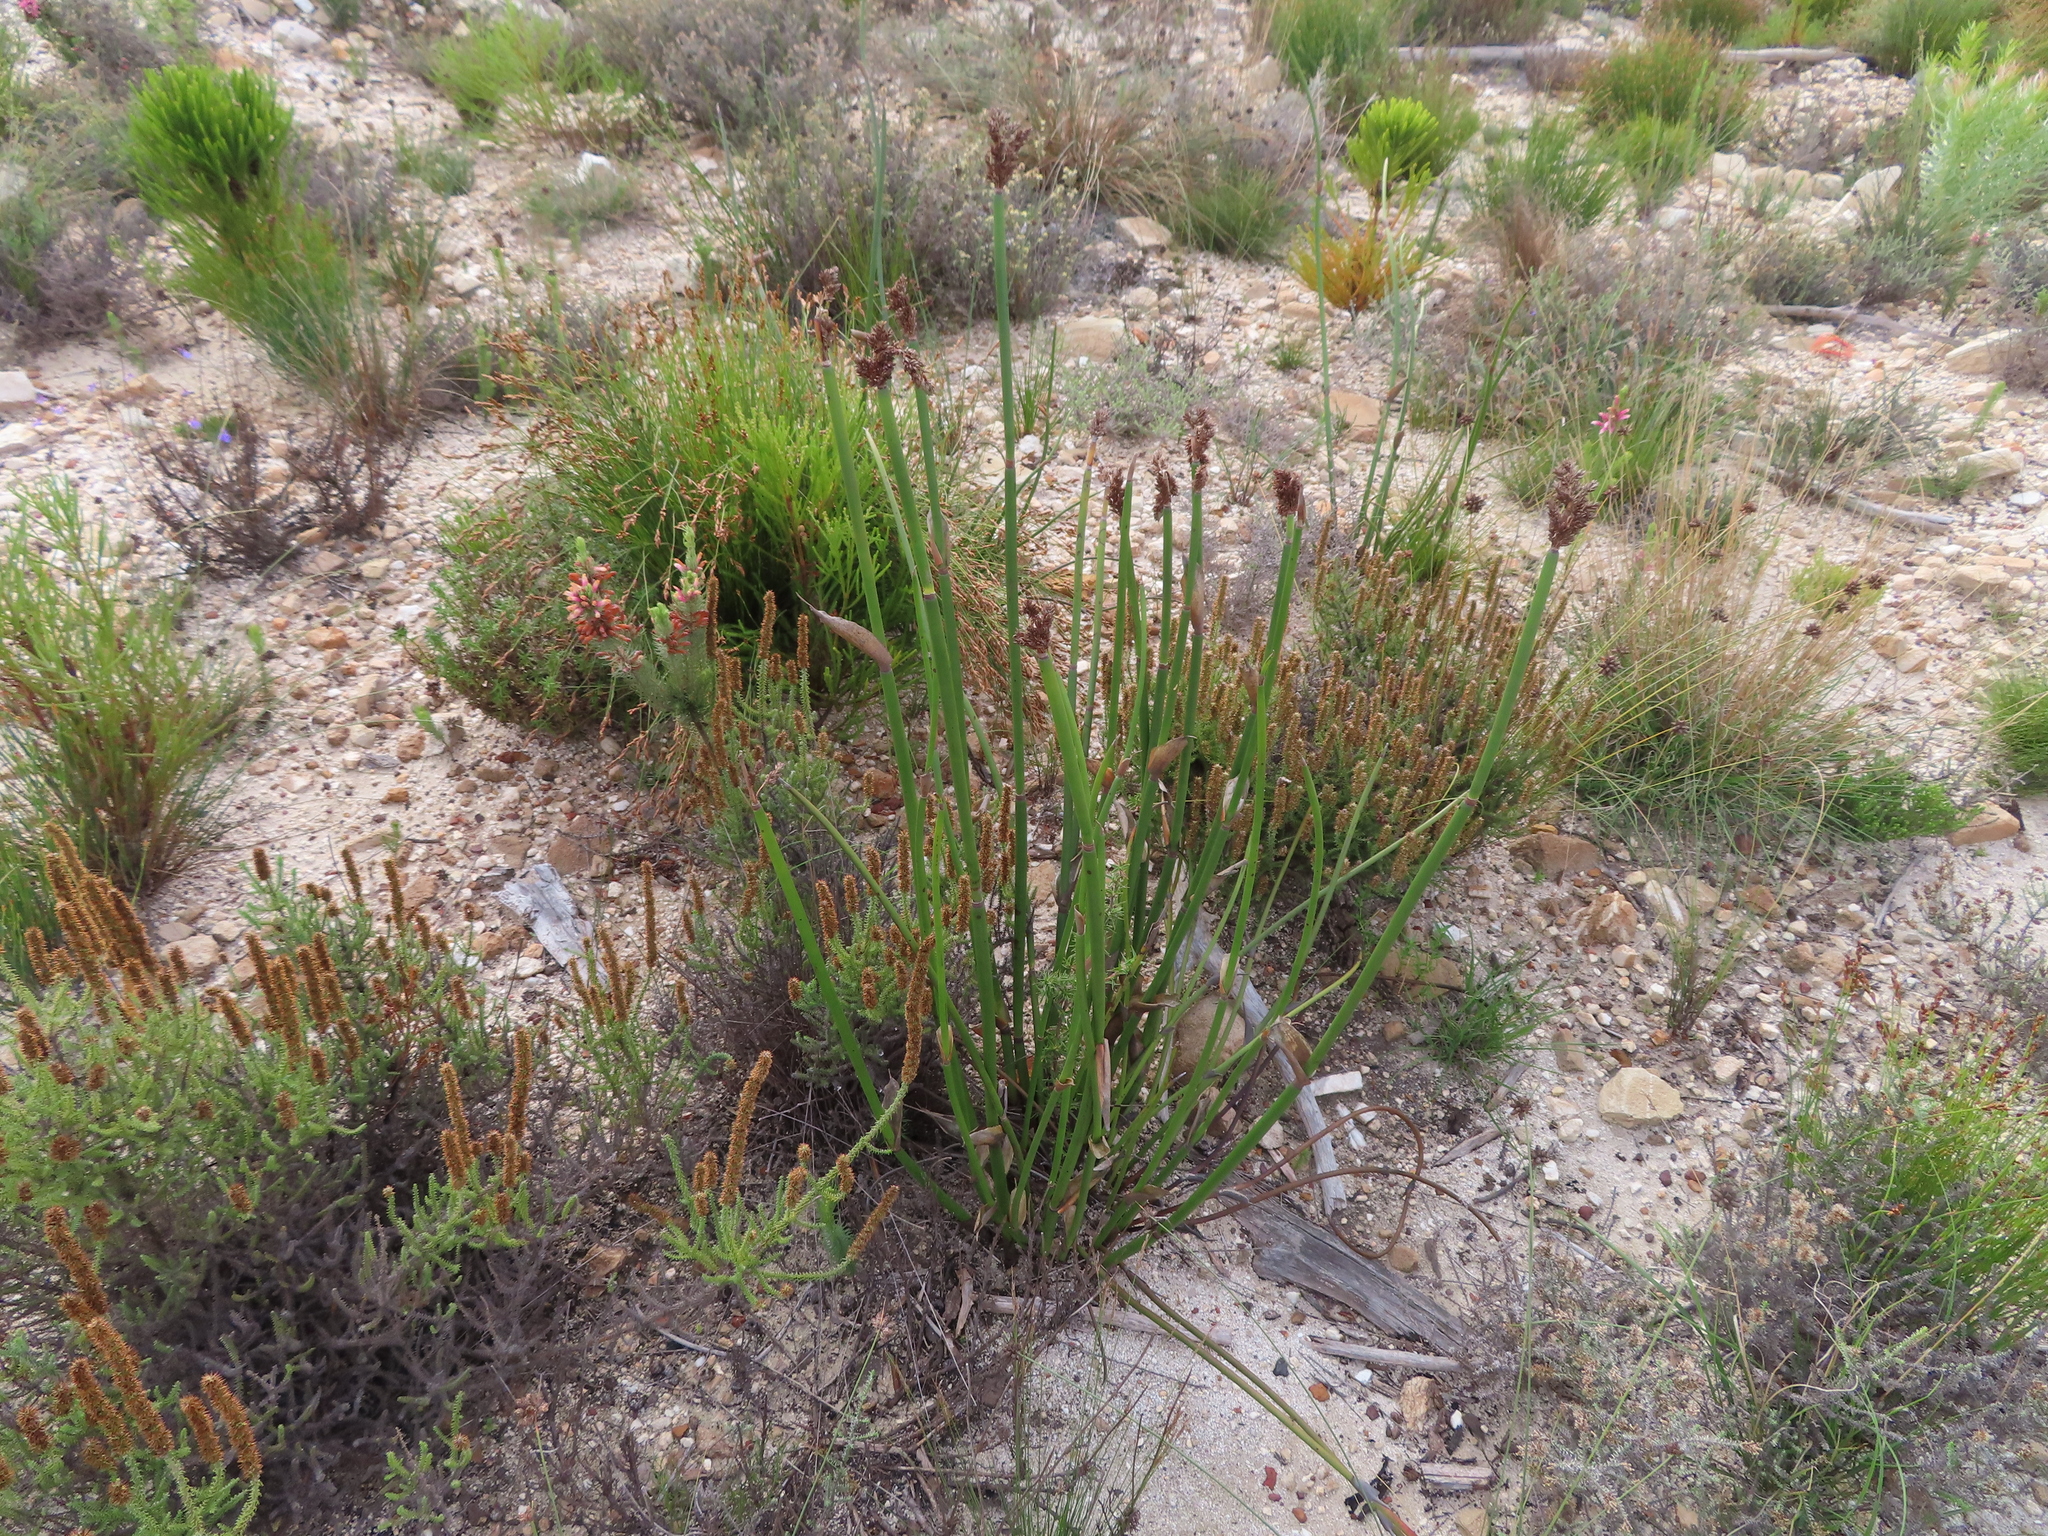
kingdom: Plantae
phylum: Tracheophyta
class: Liliopsida
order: Poales
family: Restionaceae
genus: Elegia
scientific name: Elegia mucronata
